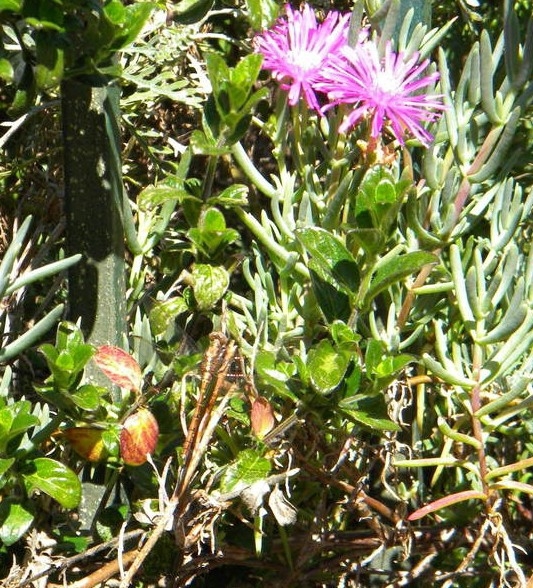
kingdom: Animalia
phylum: Arthropoda
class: Insecta
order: Odonata
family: Libellulidae
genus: Orthetrum
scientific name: Orthetrum julia
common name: Julia skimmer
